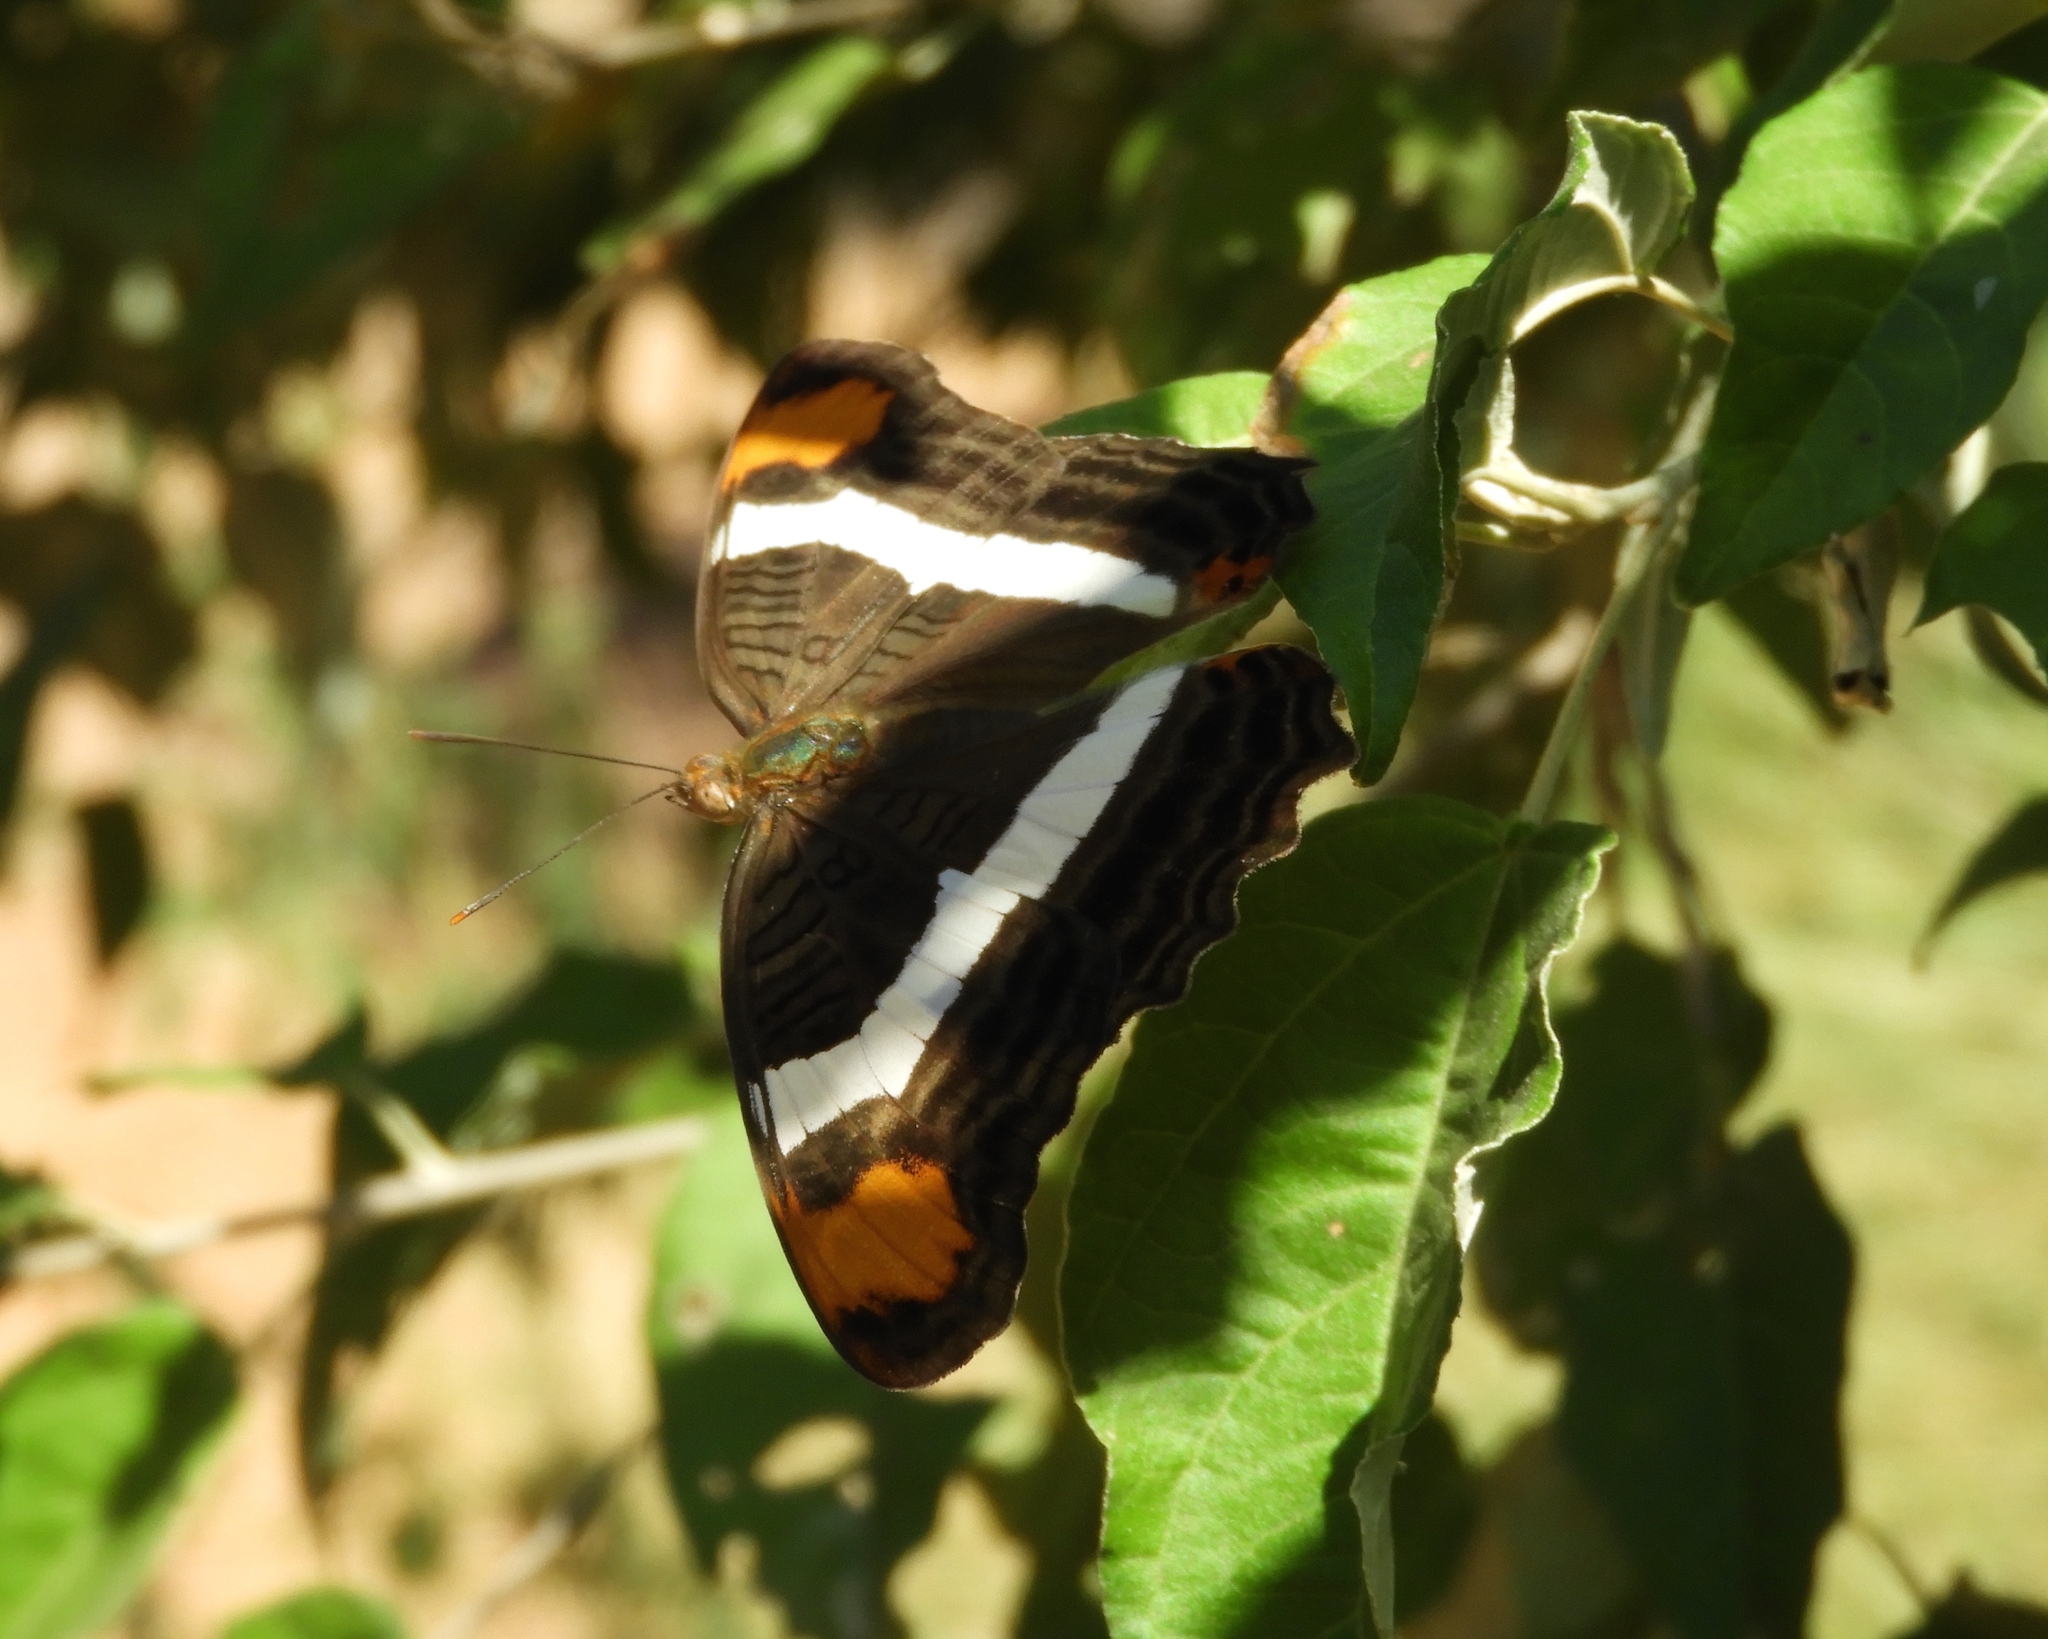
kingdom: Animalia
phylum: Arthropoda
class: Insecta
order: Lepidoptera
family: Nymphalidae
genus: Limenitis
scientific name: Limenitis fessonia
